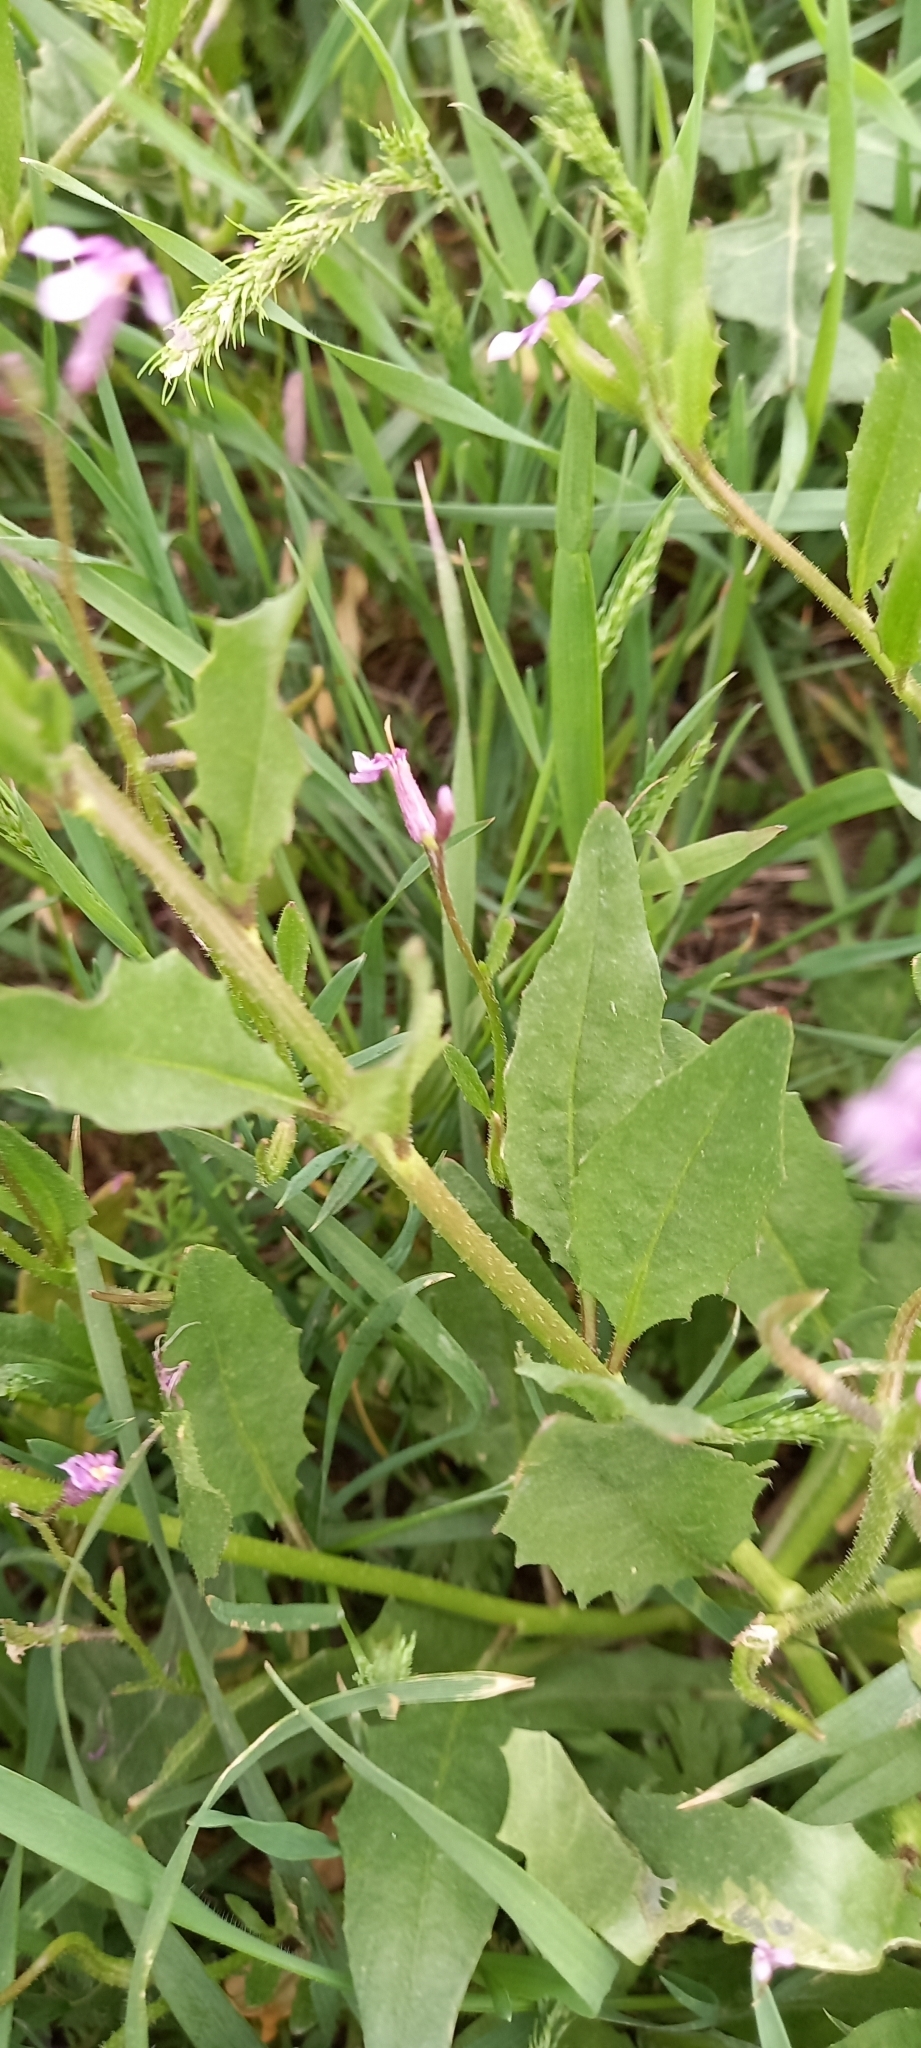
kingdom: Plantae
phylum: Tracheophyta
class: Magnoliopsida
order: Brassicales
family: Brassicaceae
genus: Chorispora
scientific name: Chorispora tenella
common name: Crossflower
